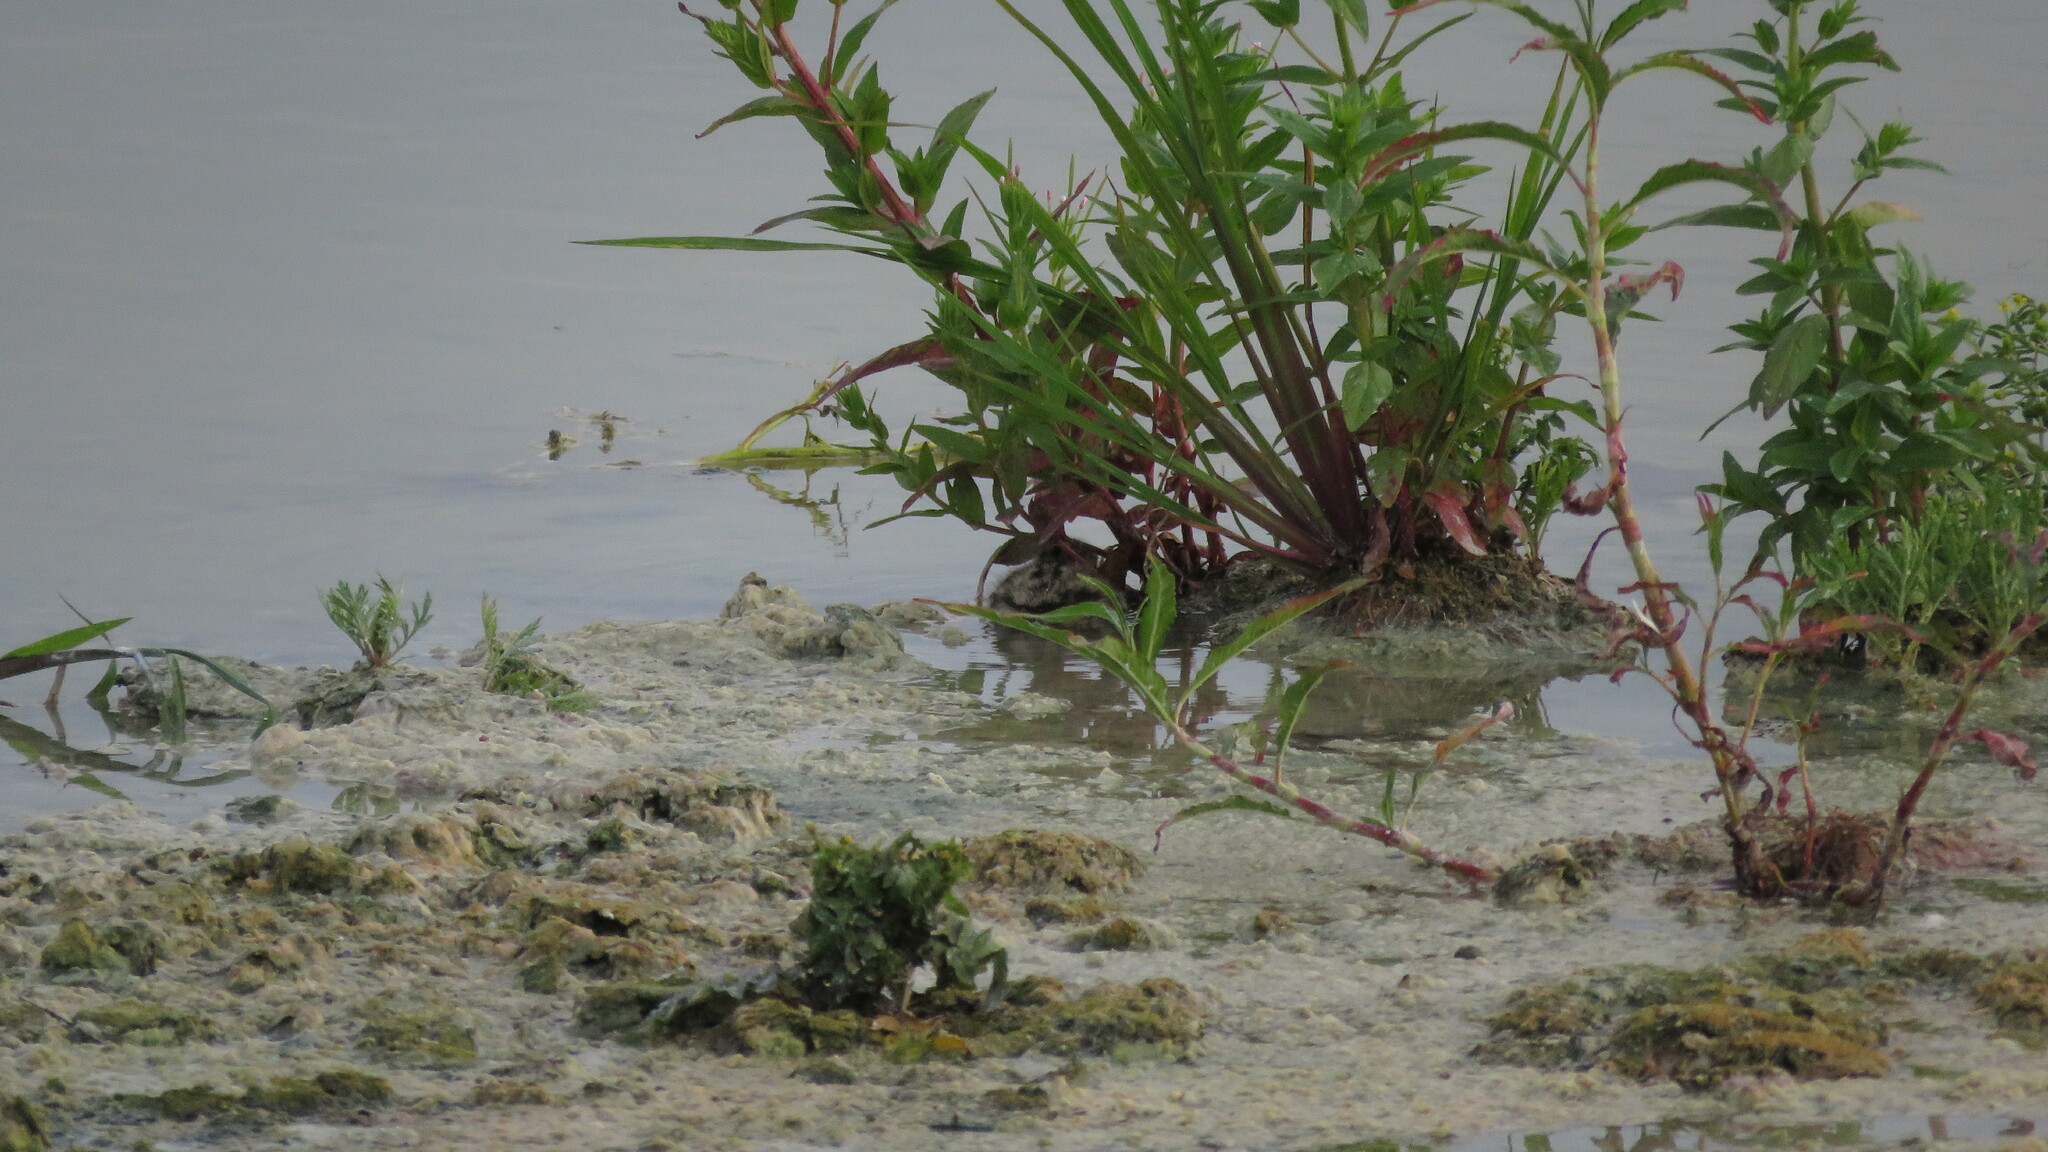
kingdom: Animalia
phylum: Chordata
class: Aves
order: Charadriiformes
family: Recurvirostridae
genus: Himantopus
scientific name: Himantopus mexicanus
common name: Black-necked stilt
